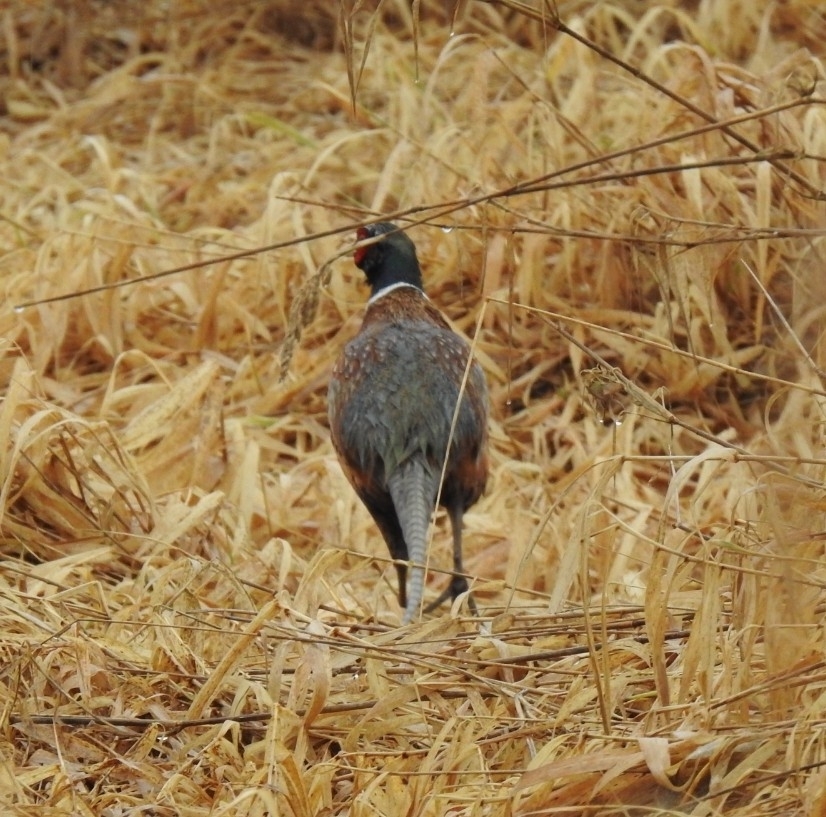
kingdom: Animalia
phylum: Chordata
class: Aves
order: Galliformes
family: Phasianidae
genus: Phasianus
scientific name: Phasianus colchicus
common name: Common pheasant
